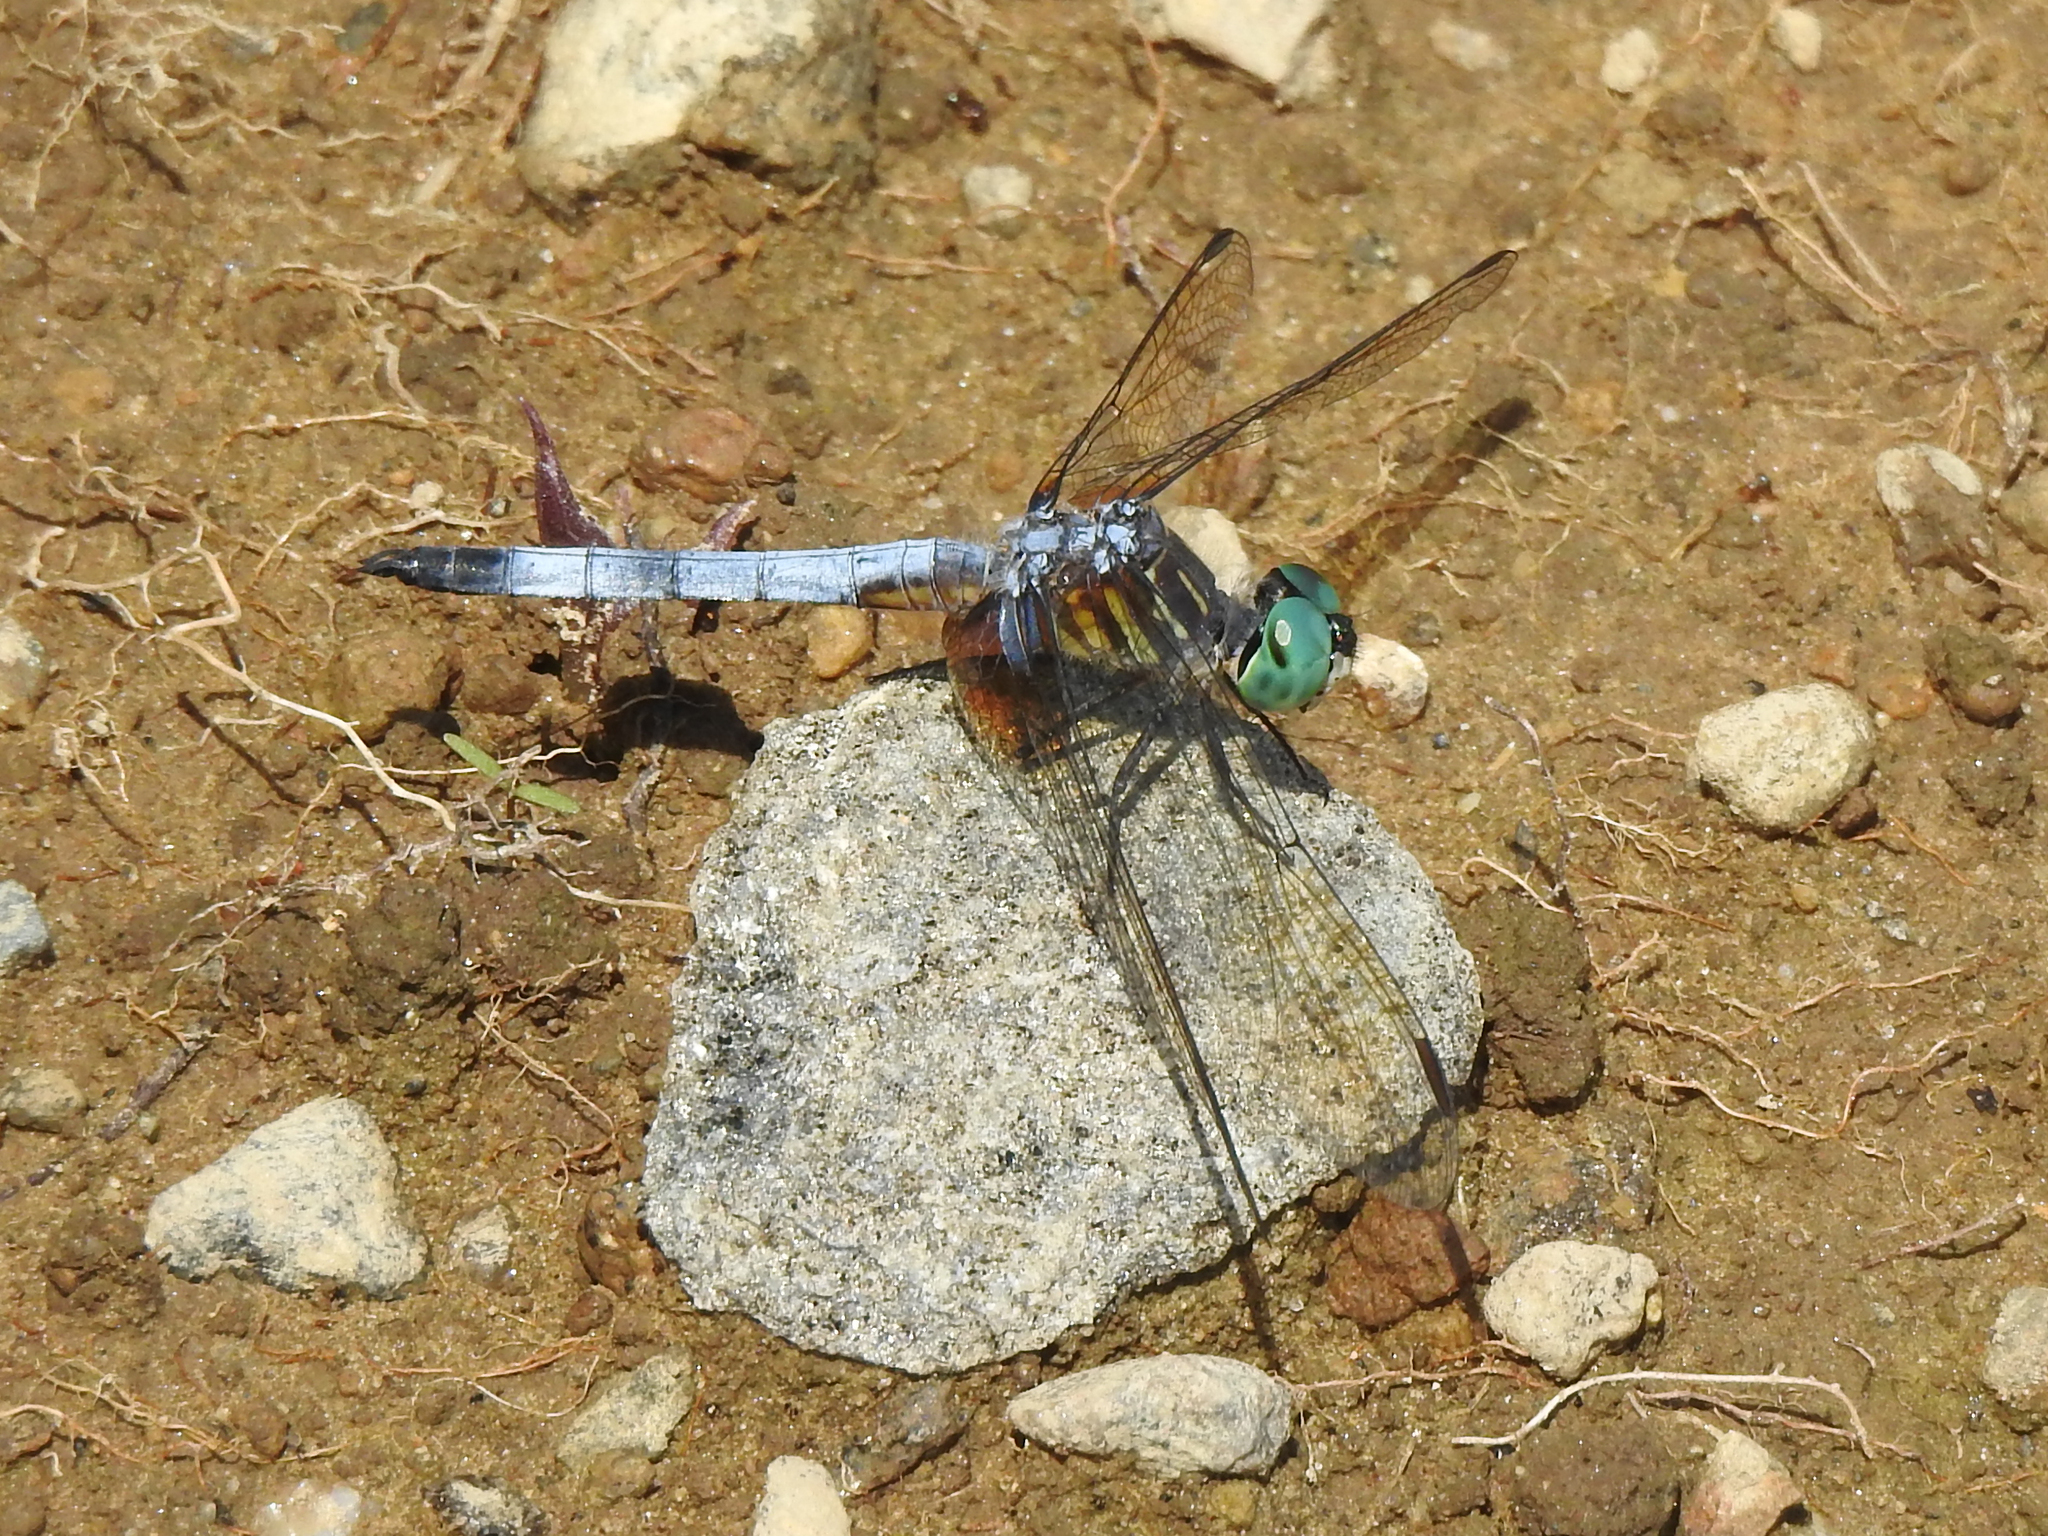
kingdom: Animalia
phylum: Arthropoda
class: Insecta
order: Odonata
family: Libellulidae
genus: Pachydiplax
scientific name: Pachydiplax longipennis
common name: Blue dasher
